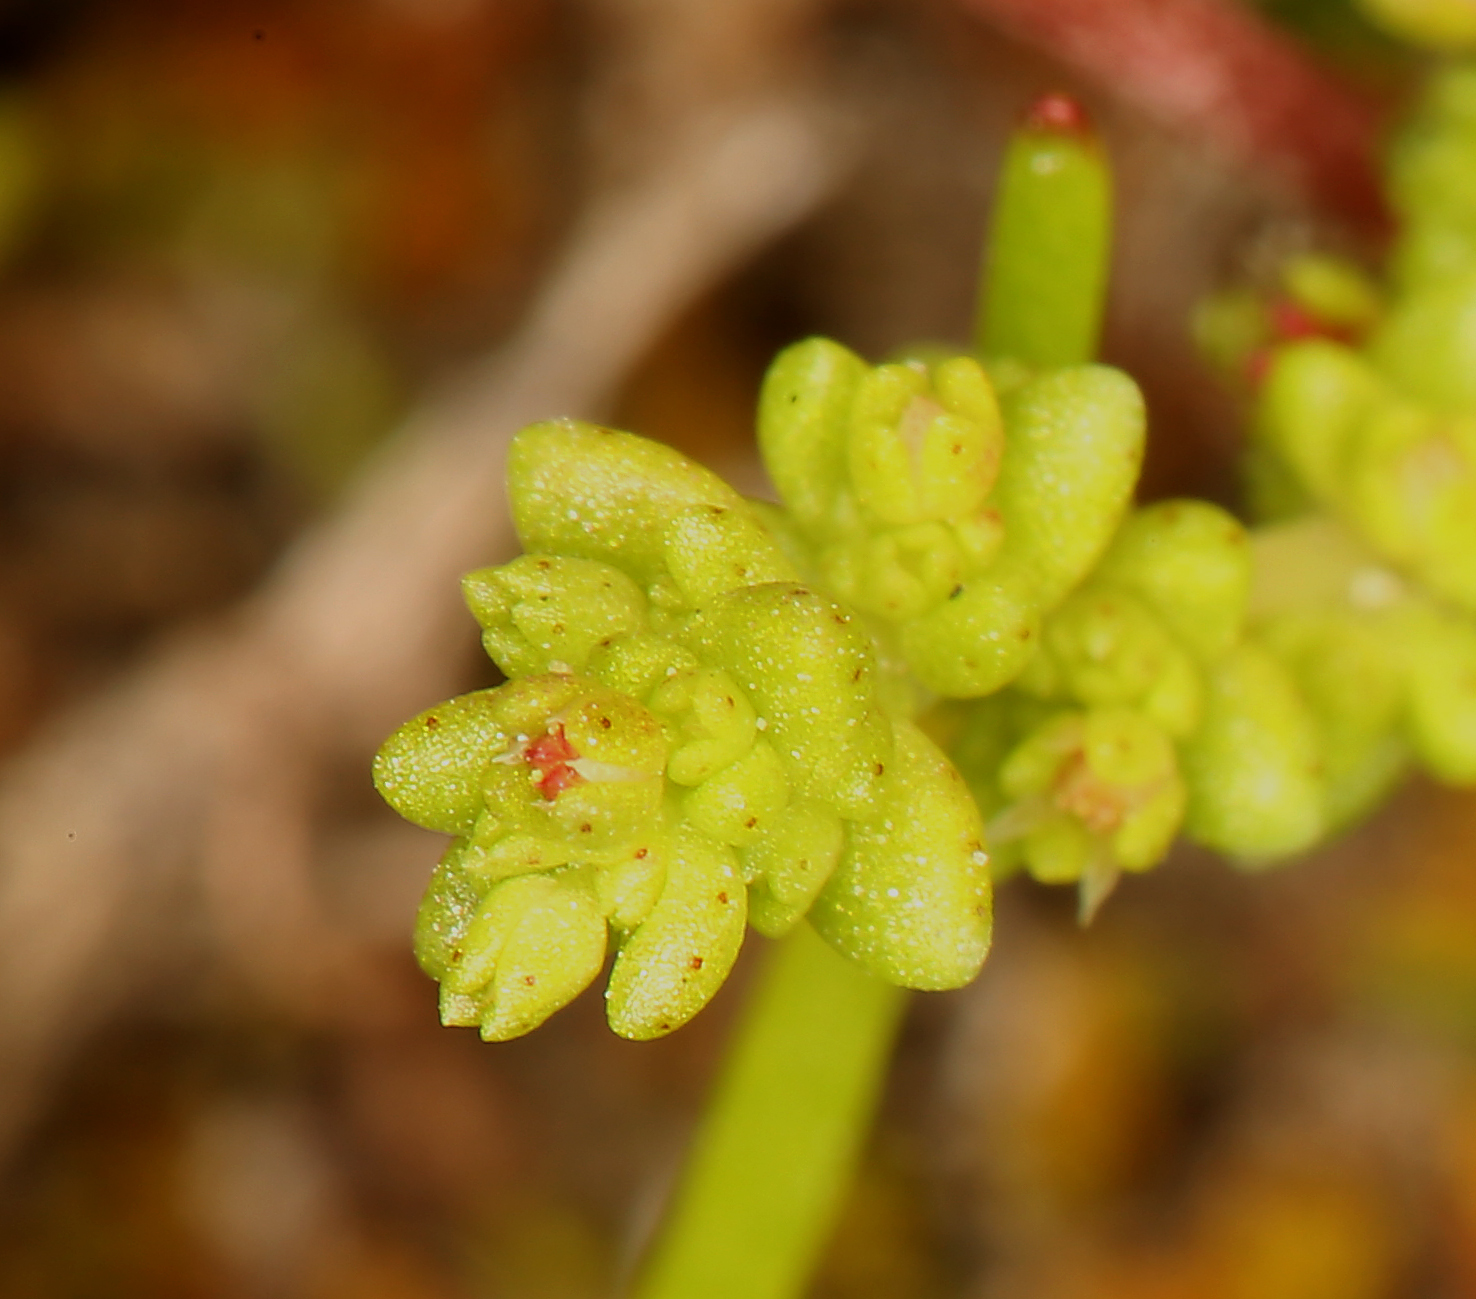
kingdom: Plantae
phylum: Tracheophyta
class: Magnoliopsida
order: Saxifragales
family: Crassulaceae
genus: Crassula
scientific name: Crassula connata
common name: Erect pygmyweed
